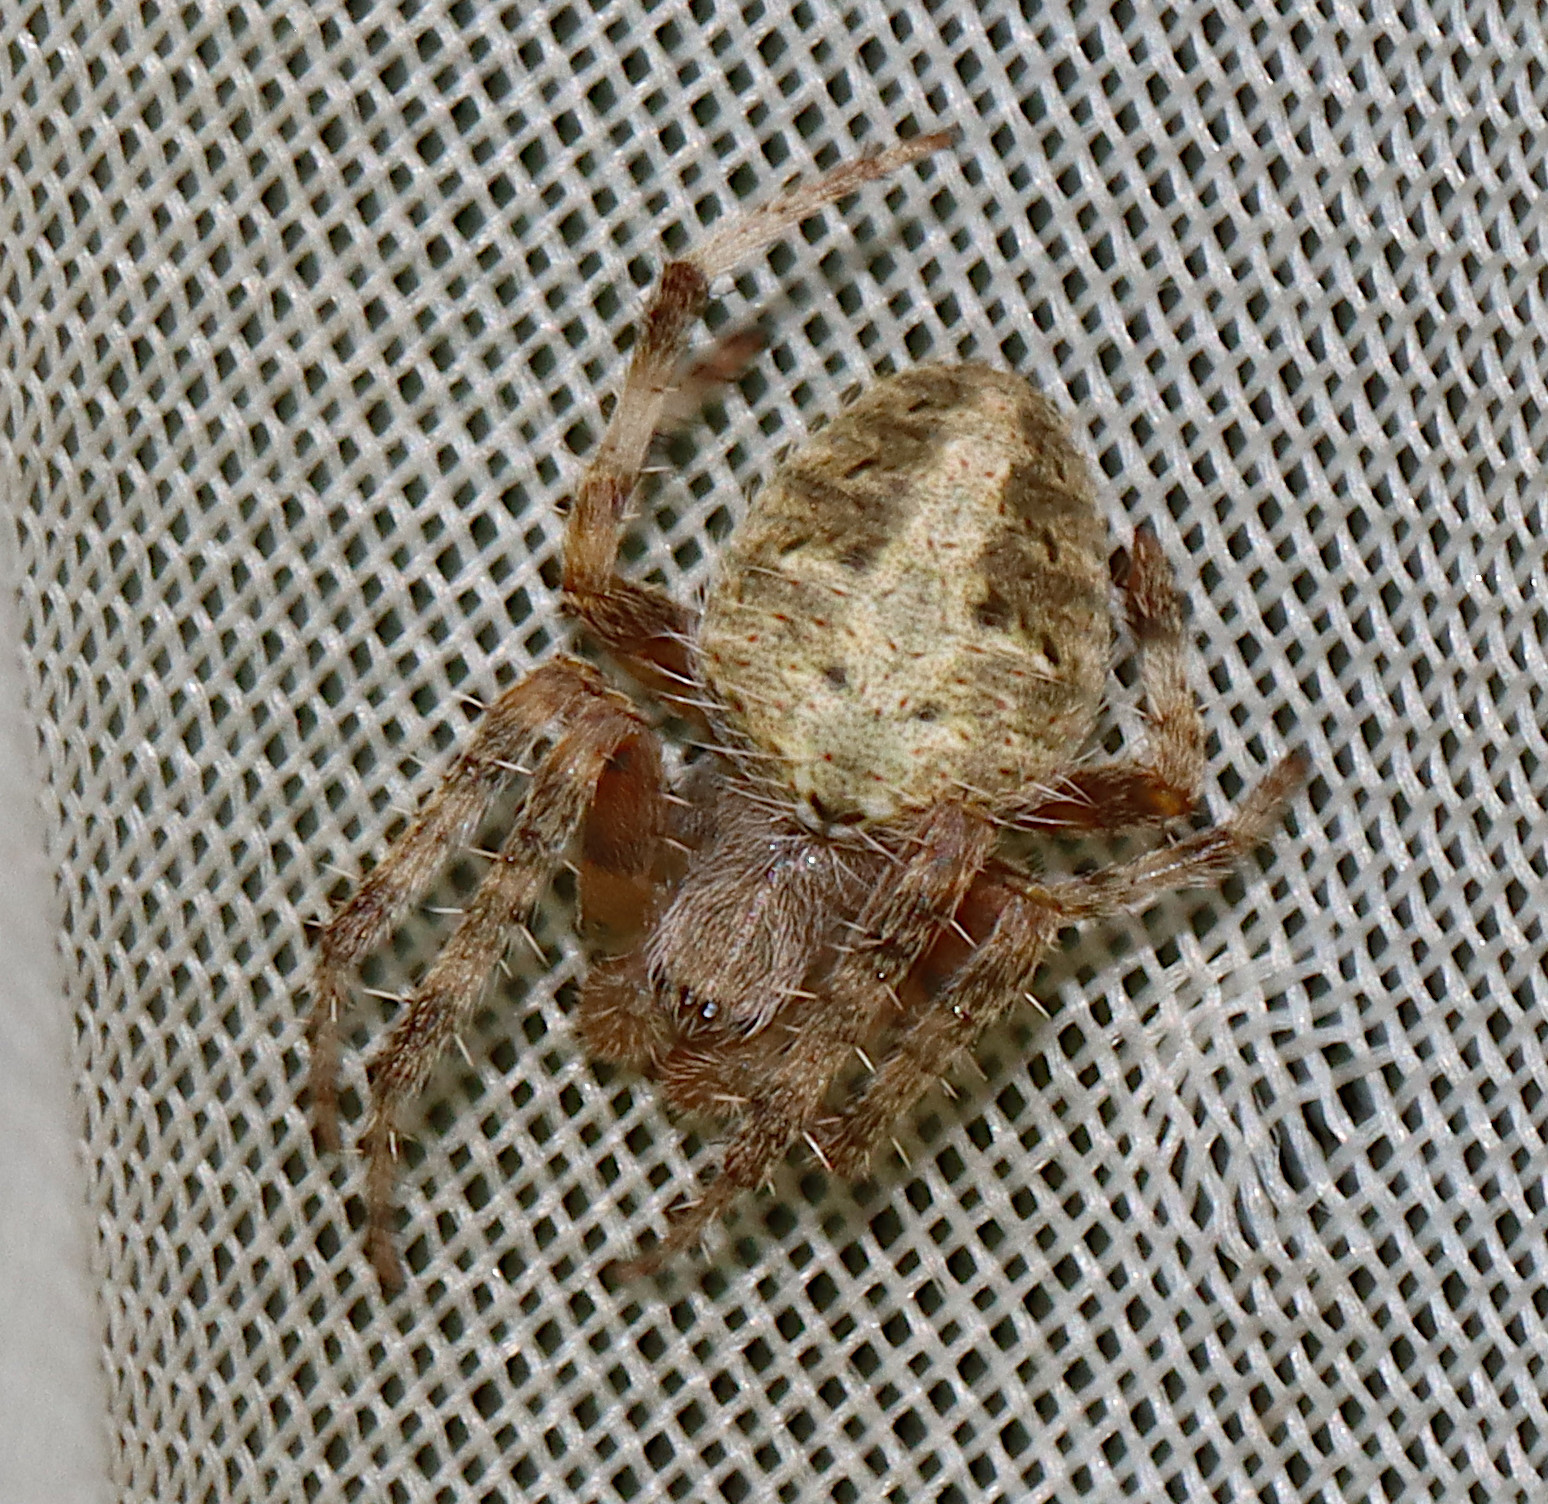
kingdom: Animalia
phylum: Arthropoda
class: Arachnida
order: Araneae
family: Araneidae
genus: Neoscona
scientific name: Neoscona crucifera
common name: Spotted orbweaver
